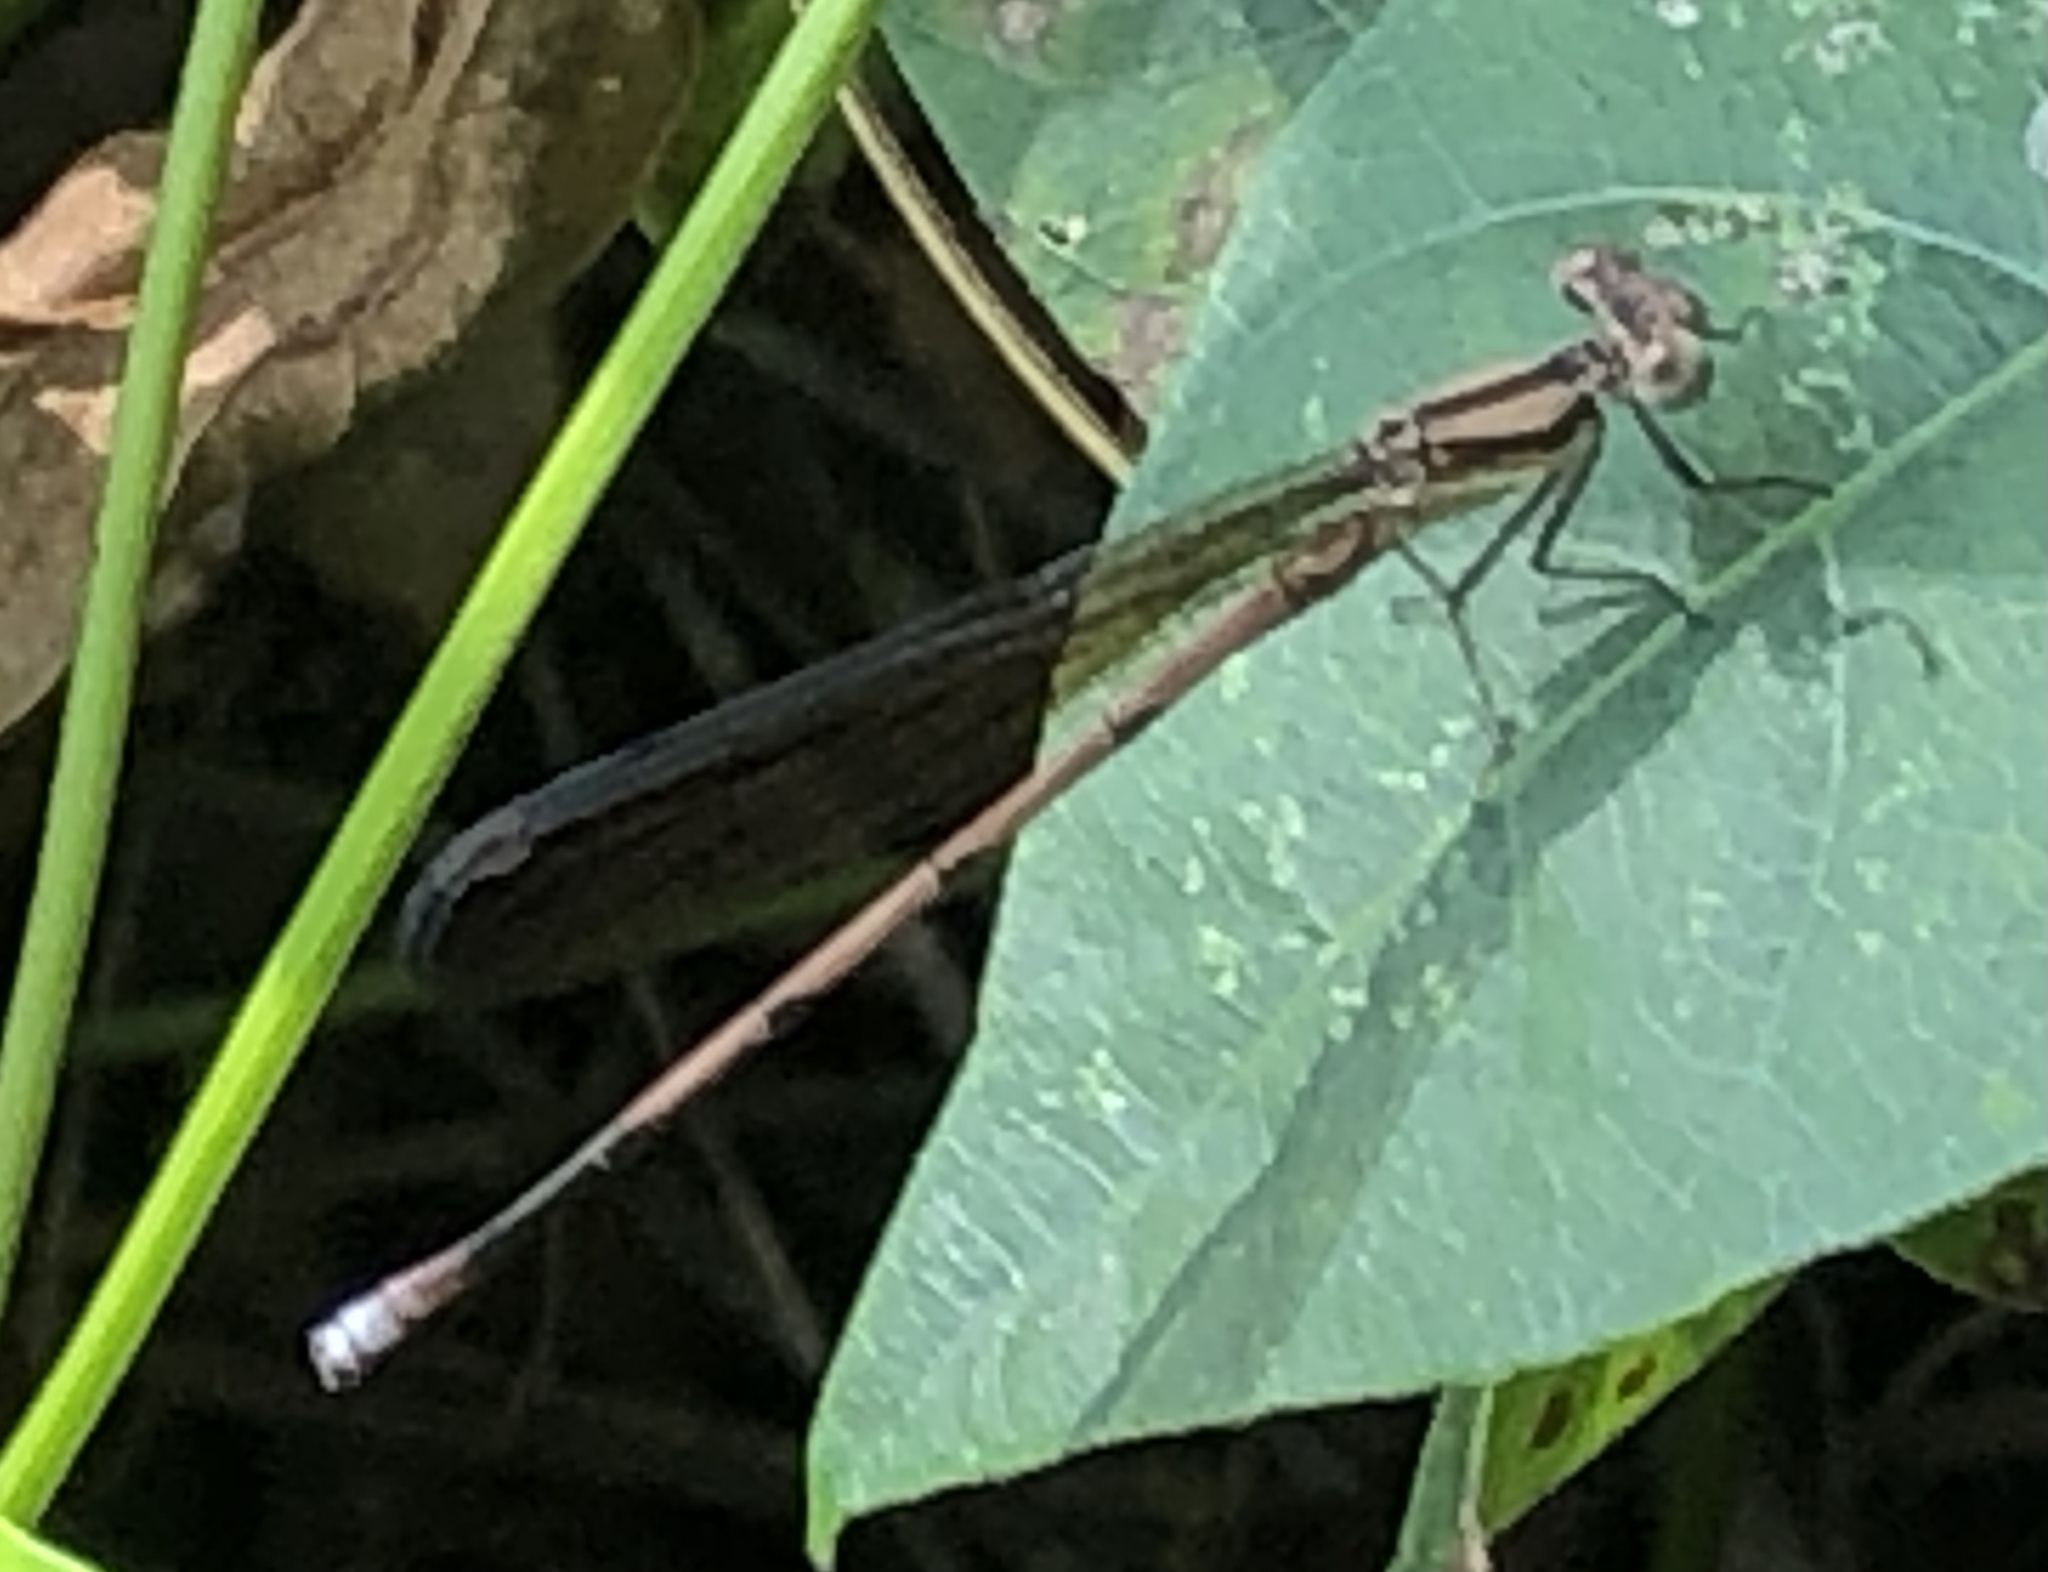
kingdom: Animalia
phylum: Arthropoda
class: Insecta
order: Odonata
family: Coenagrionidae
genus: Argia
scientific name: Argia fumipennis
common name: Variable dancer
